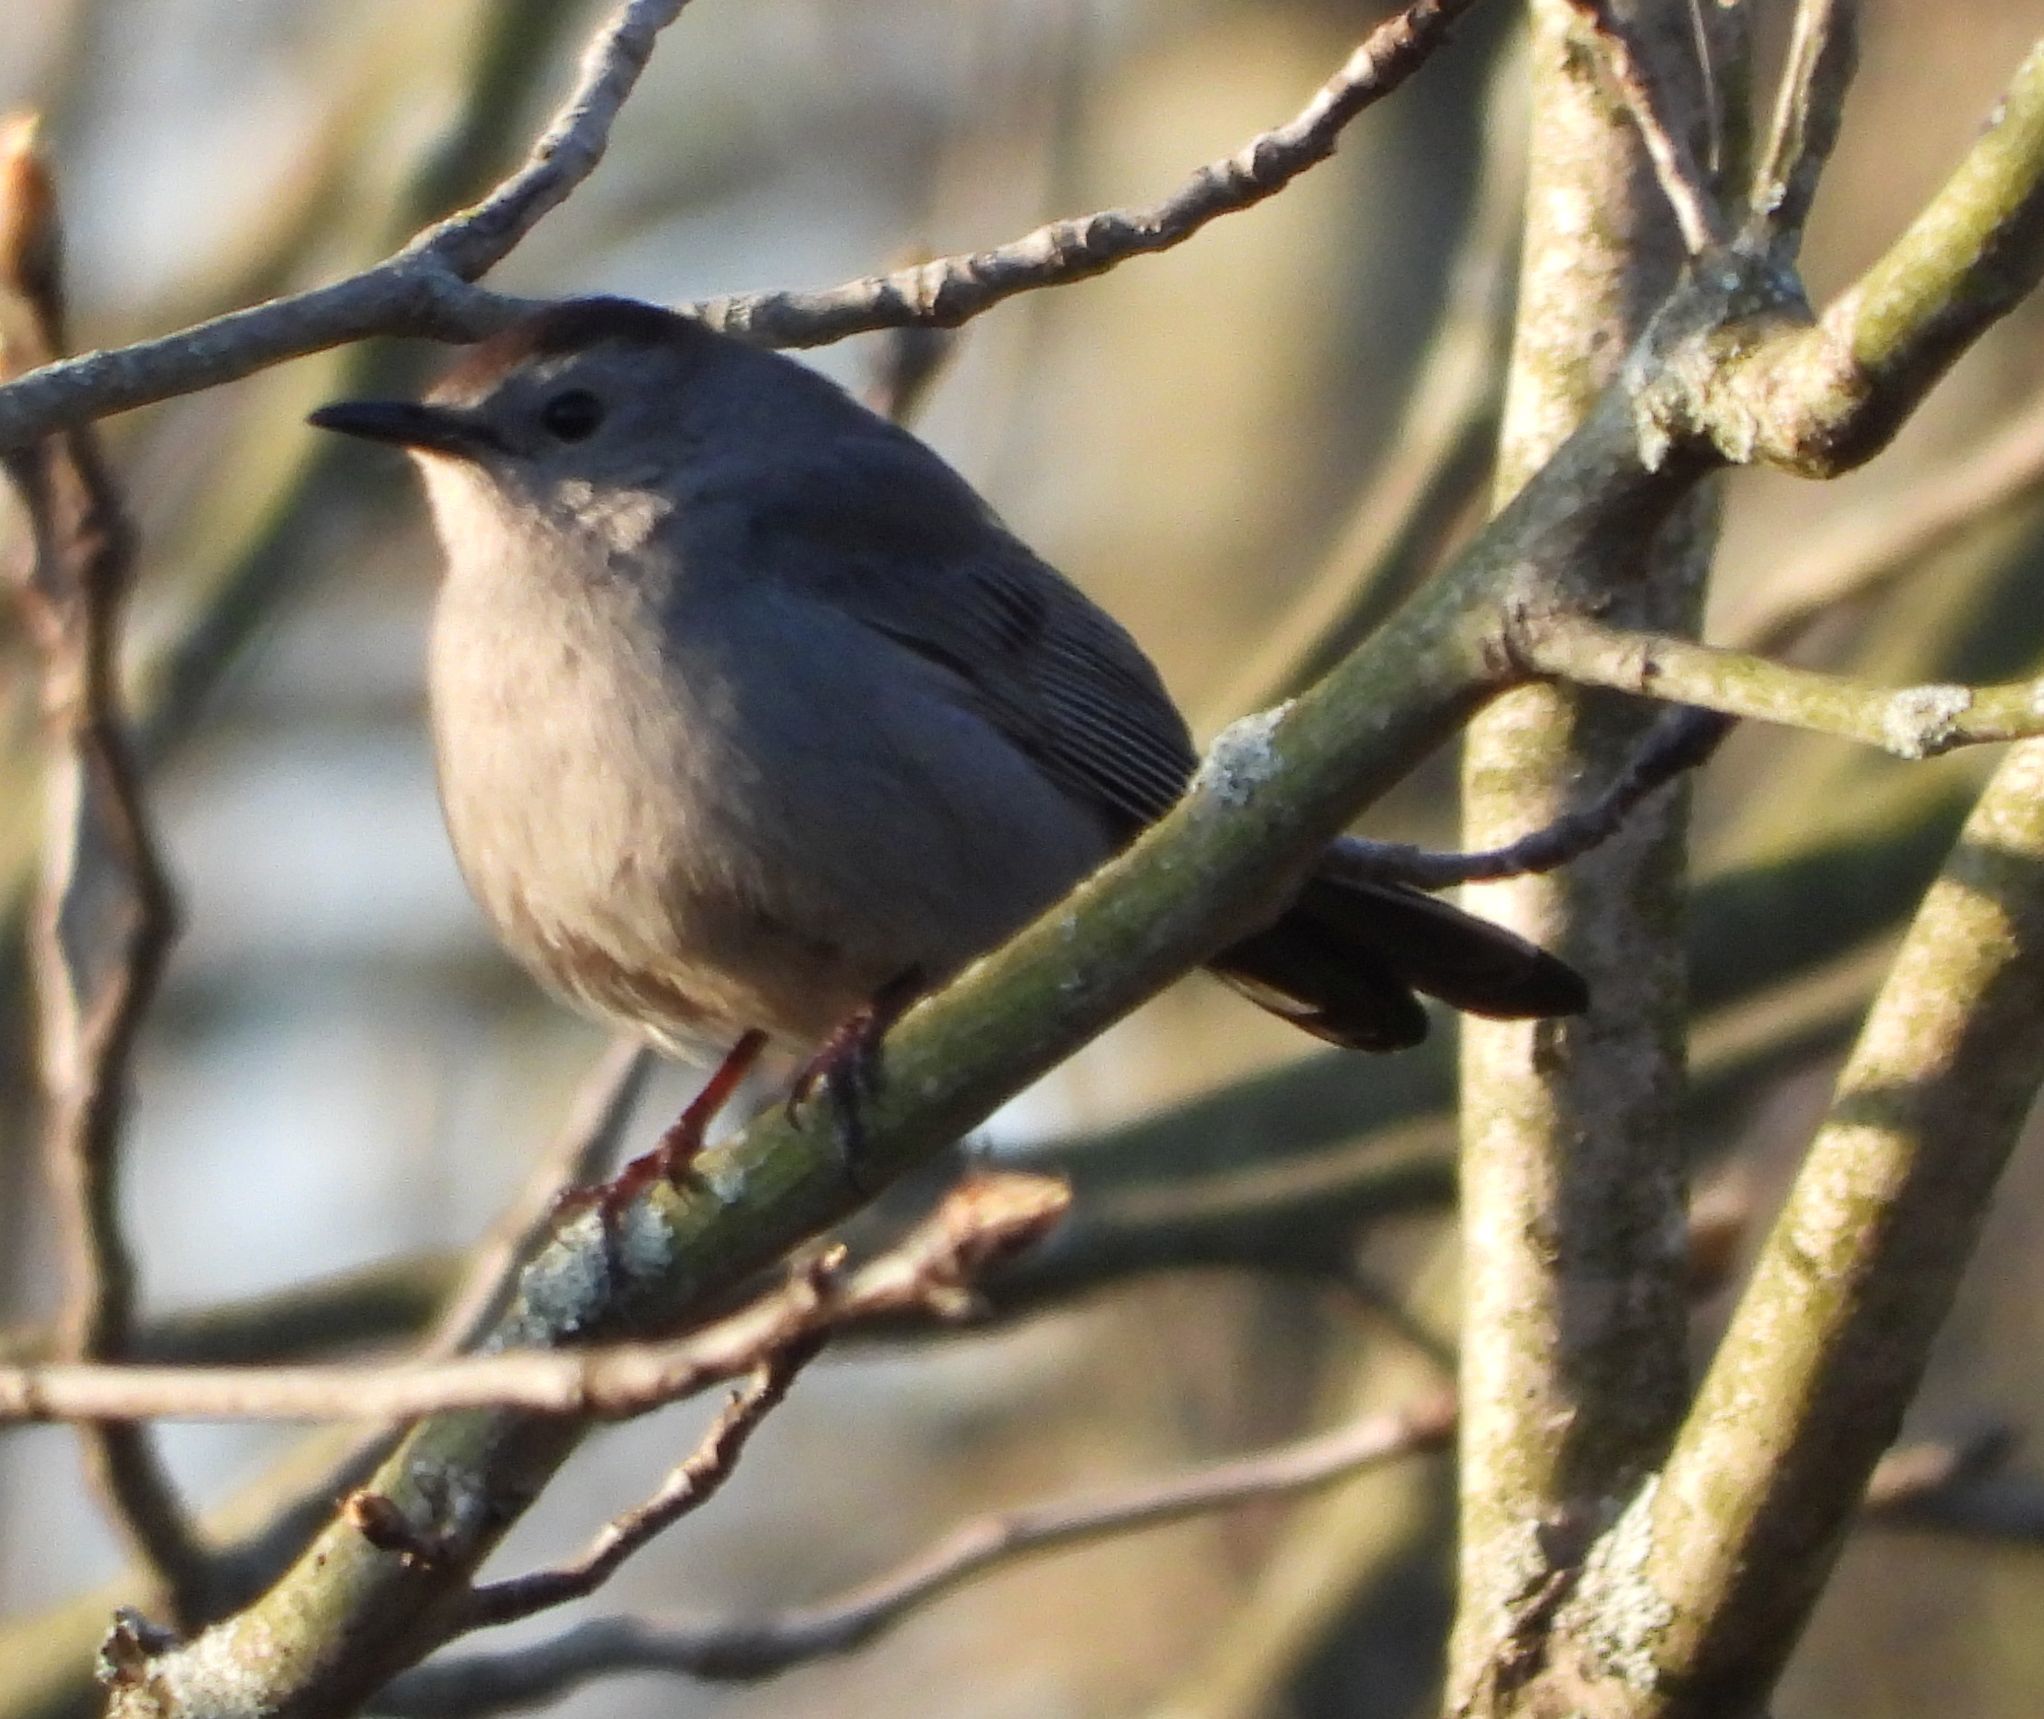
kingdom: Animalia
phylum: Chordata
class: Aves
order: Passeriformes
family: Mimidae
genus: Dumetella
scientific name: Dumetella carolinensis
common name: Gray catbird
